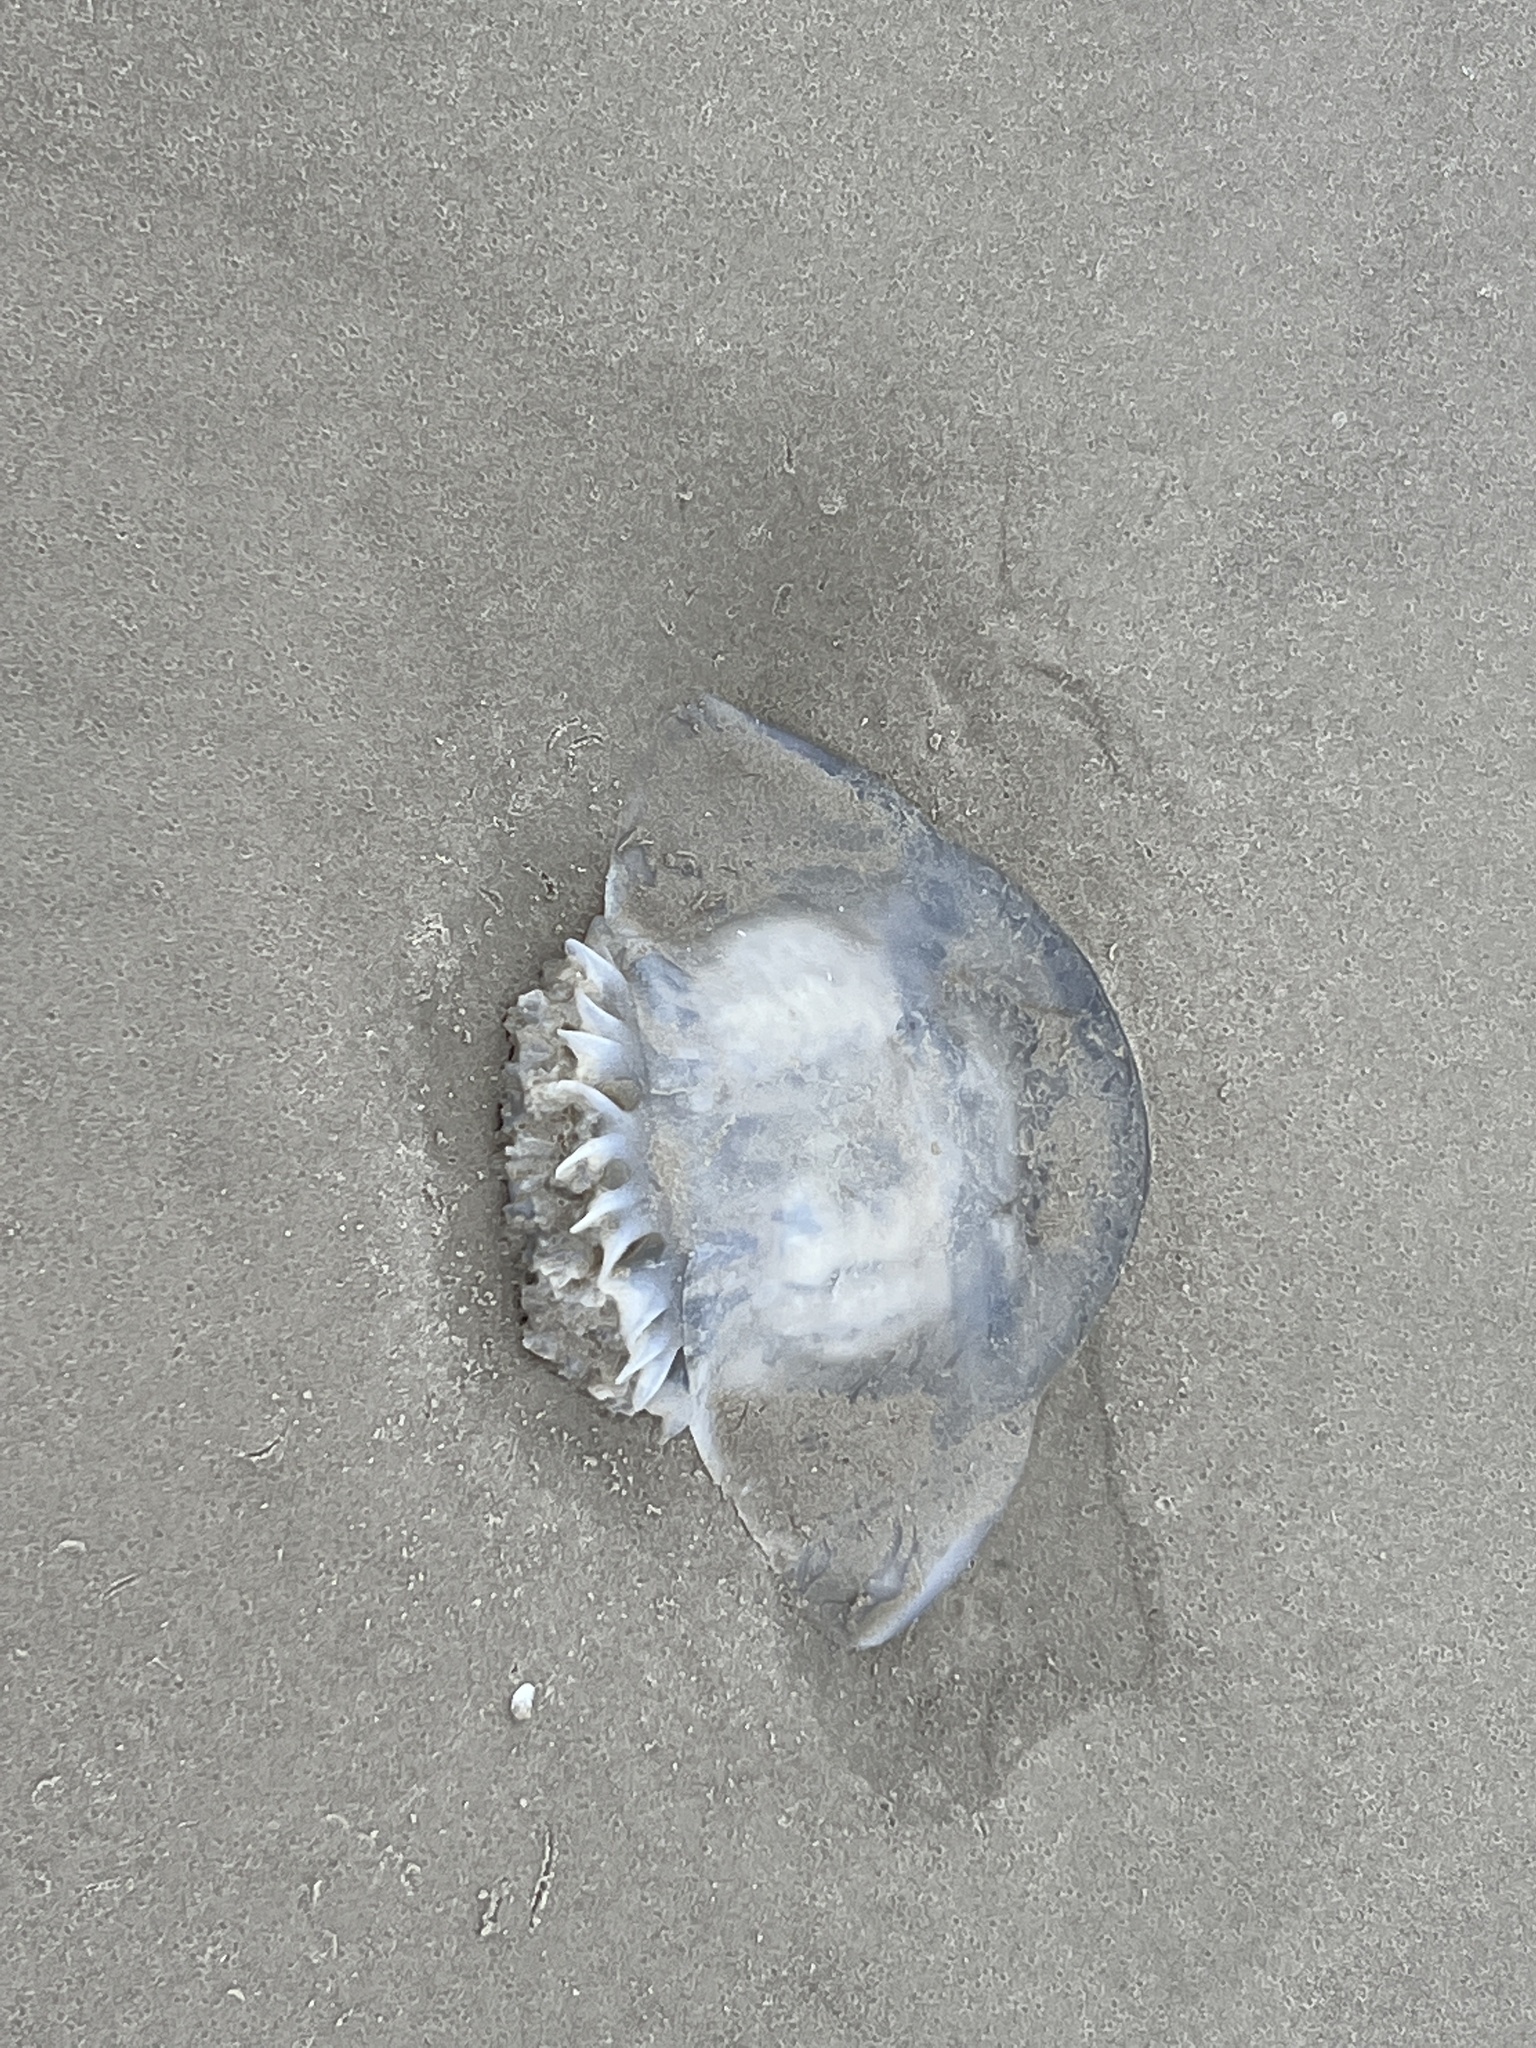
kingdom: Animalia
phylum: Cnidaria
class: Scyphozoa
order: Rhizostomeae
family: Stomolophidae
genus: Stomolophus
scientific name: Stomolophus meleagris
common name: Cabbagehead
